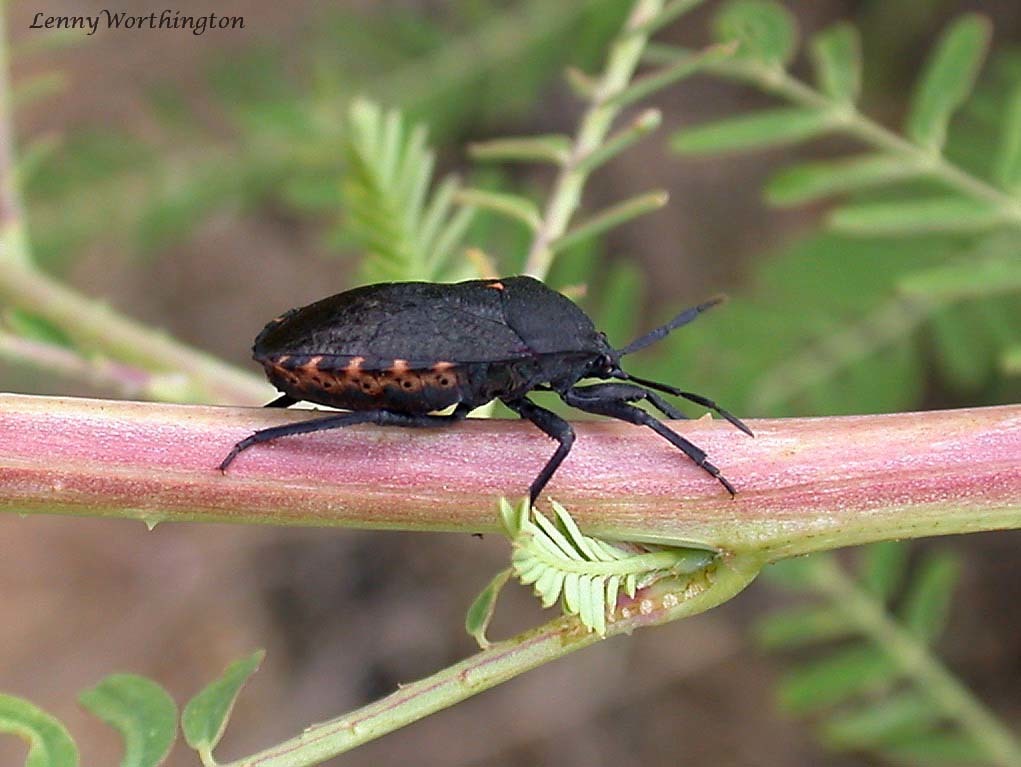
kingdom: Animalia
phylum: Arthropoda
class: Insecta
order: Hemiptera
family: Dinidoridae
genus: Cyclopelta
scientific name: Cyclopelta rugosa
